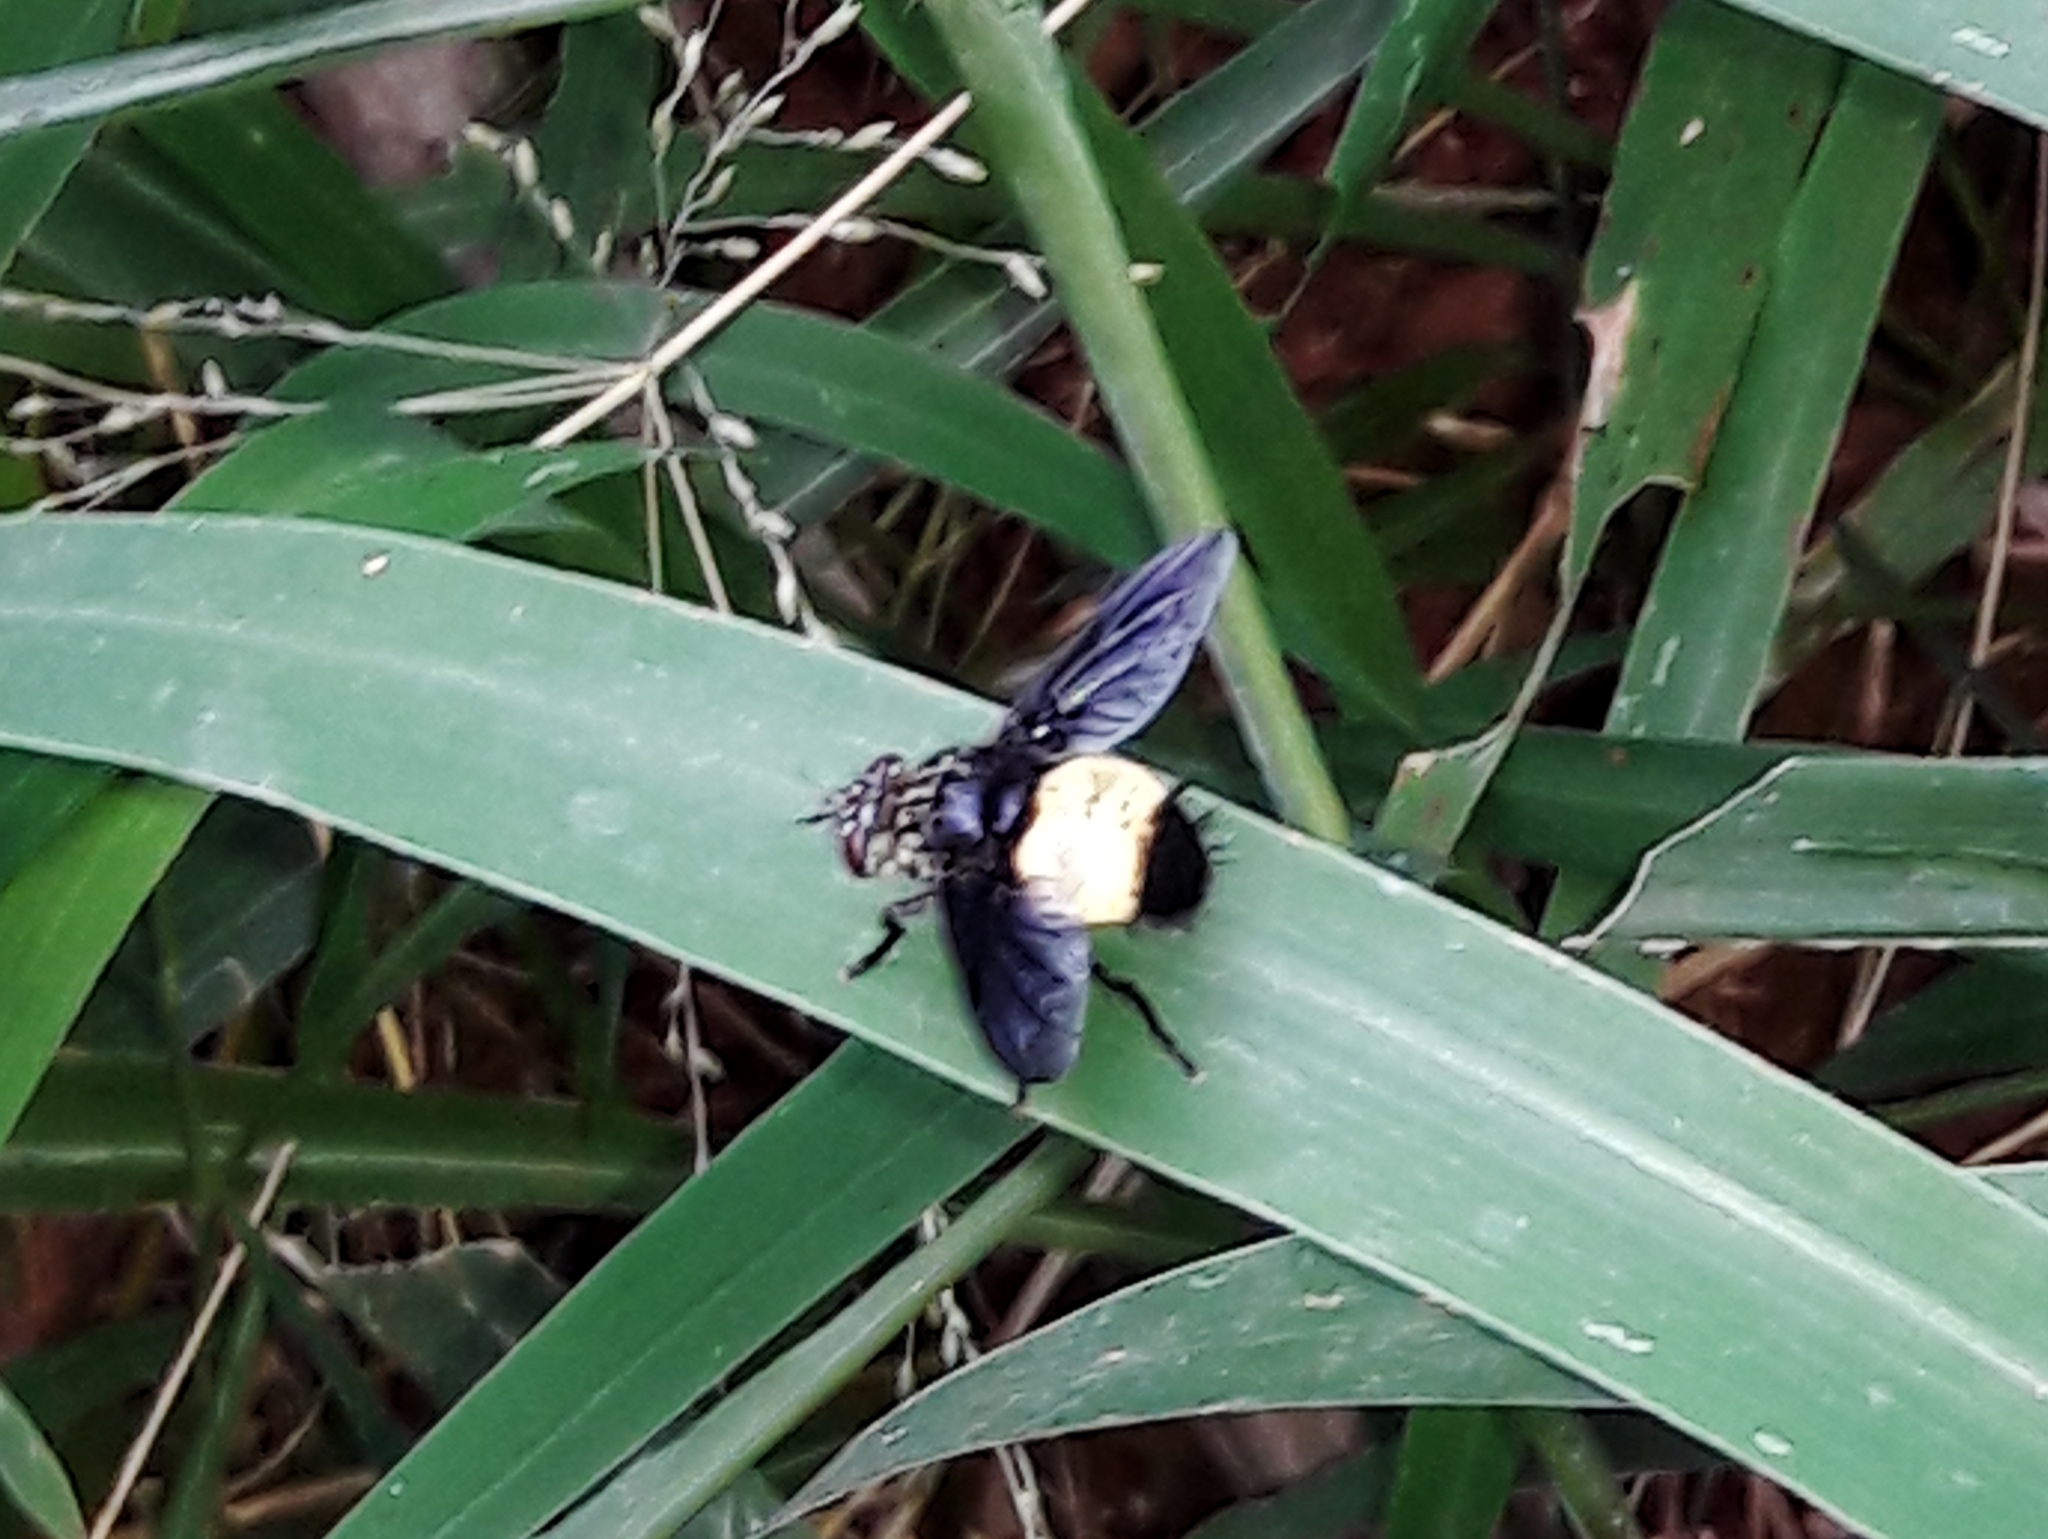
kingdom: Animalia
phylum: Arthropoda
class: Insecta
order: Diptera
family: Tachinidae
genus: Xanthozona
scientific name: Xanthozona melanopyga
